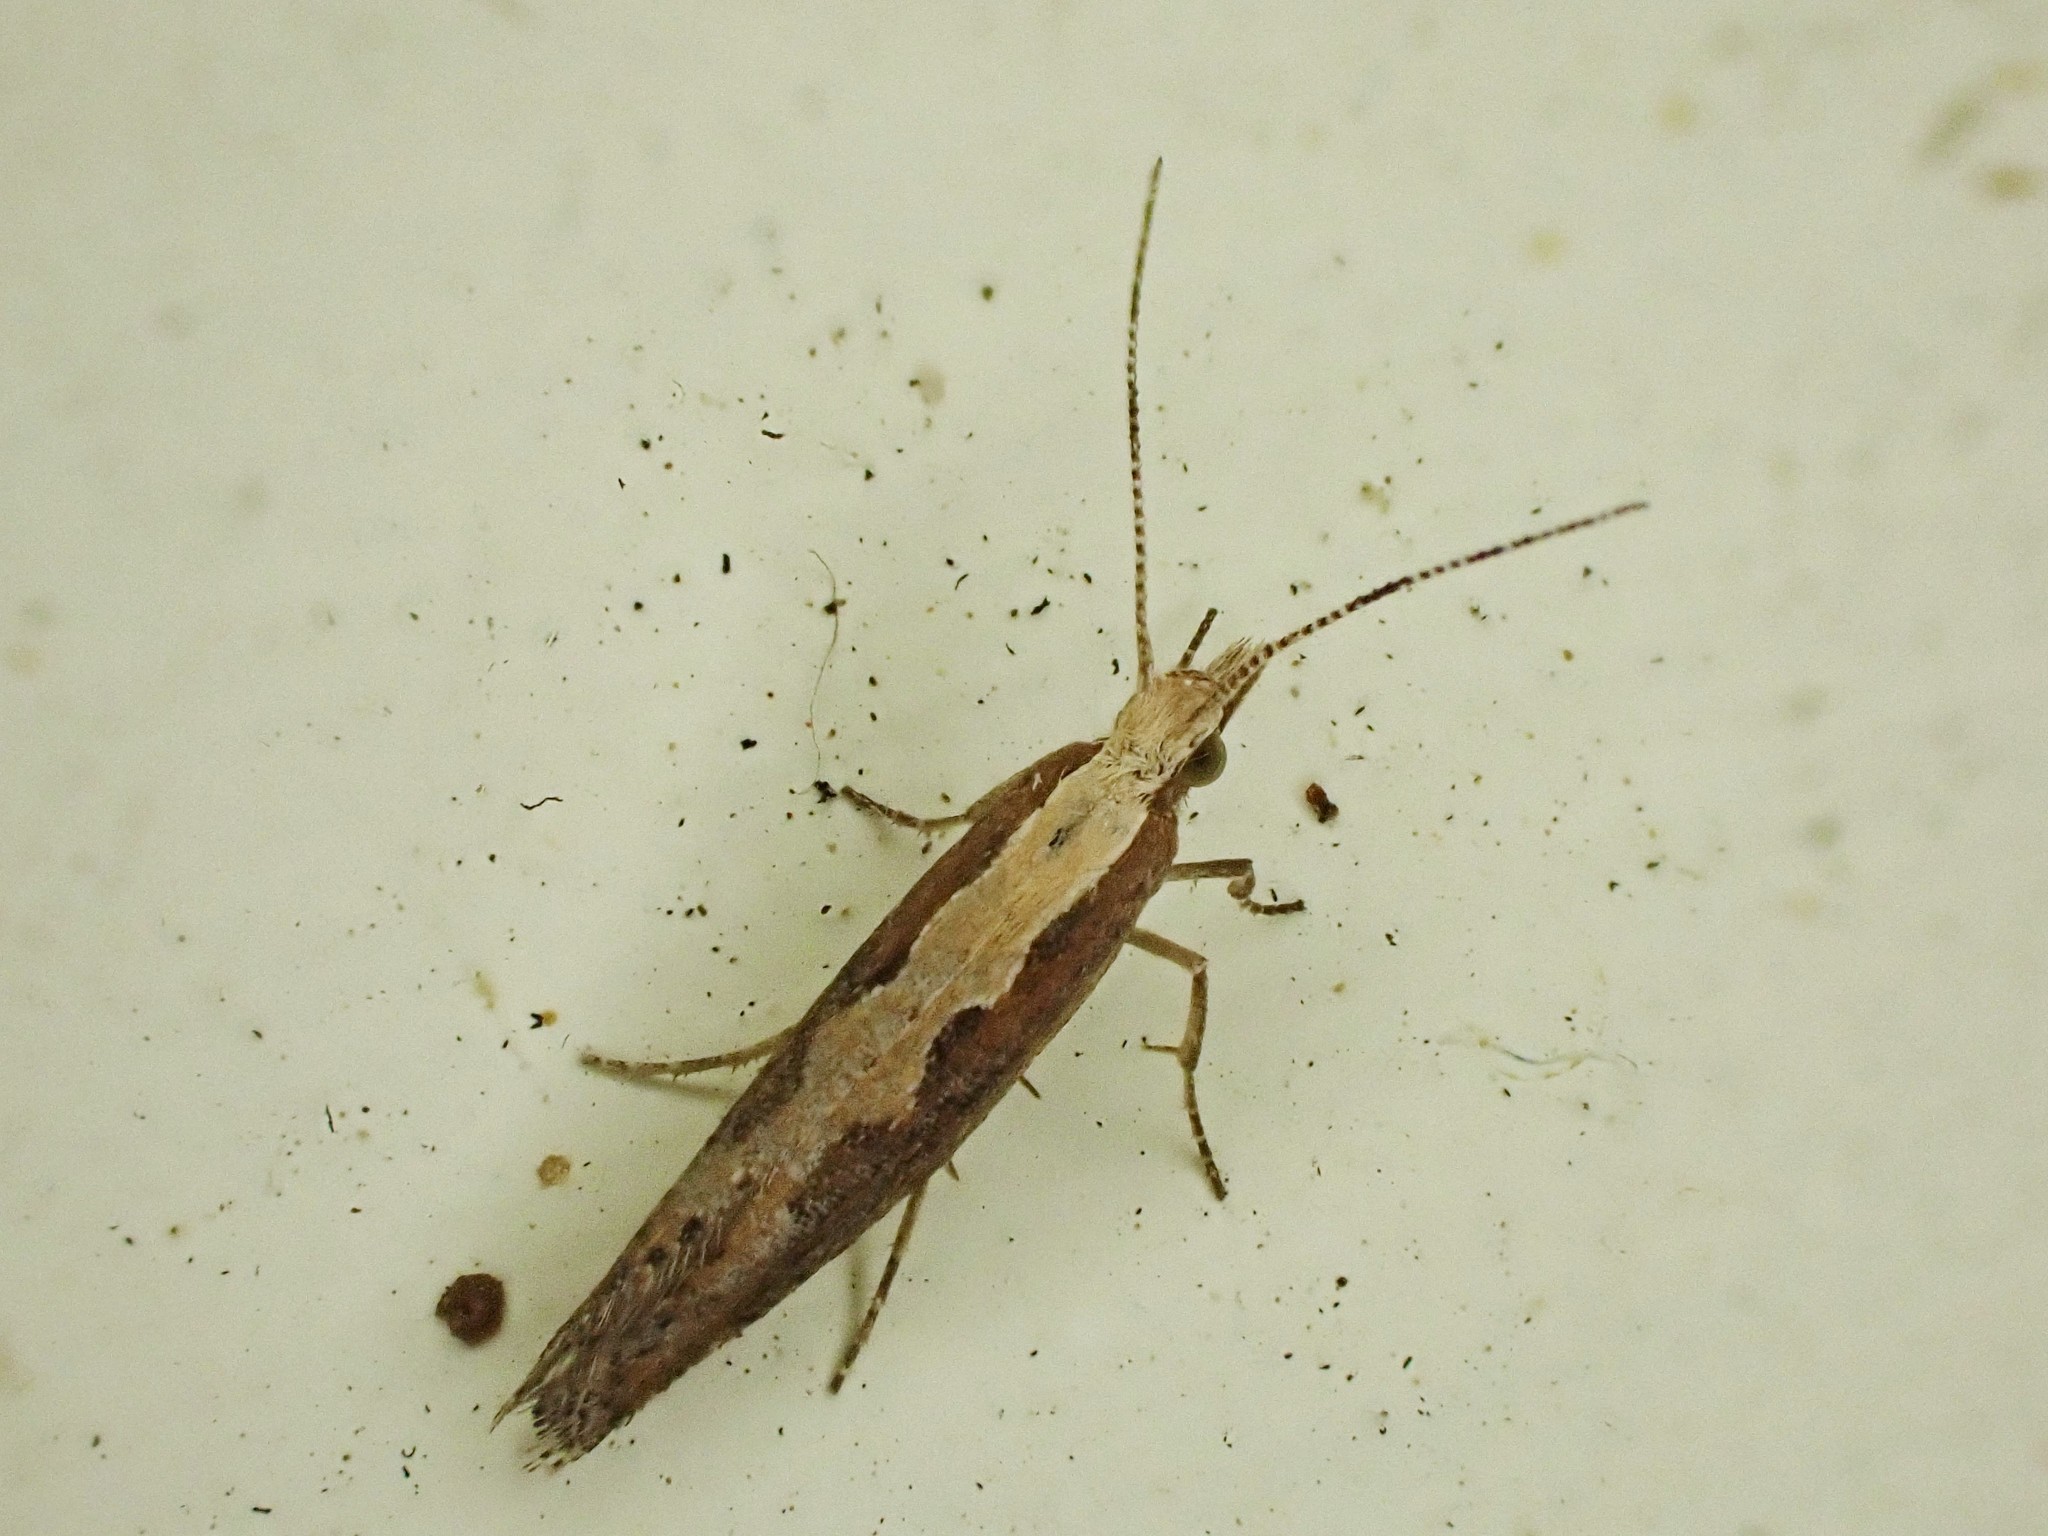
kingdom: Animalia
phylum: Arthropoda
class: Insecta
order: Lepidoptera
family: Plutellidae
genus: Plutella
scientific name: Plutella xylostella
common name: Diamond-back moth
